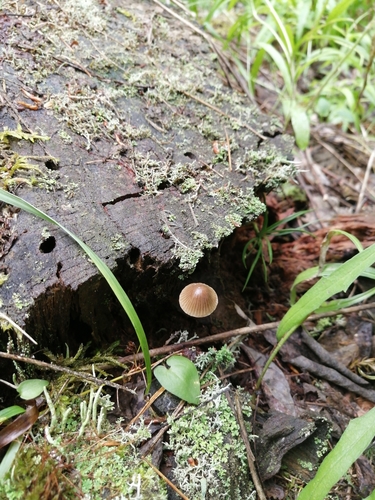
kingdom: Fungi
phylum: Basidiomycota
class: Agaricomycetes
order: Agaricales
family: Mycenaceae
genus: Mycena
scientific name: Mycena viridimarginata
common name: Olive edge bonnet
